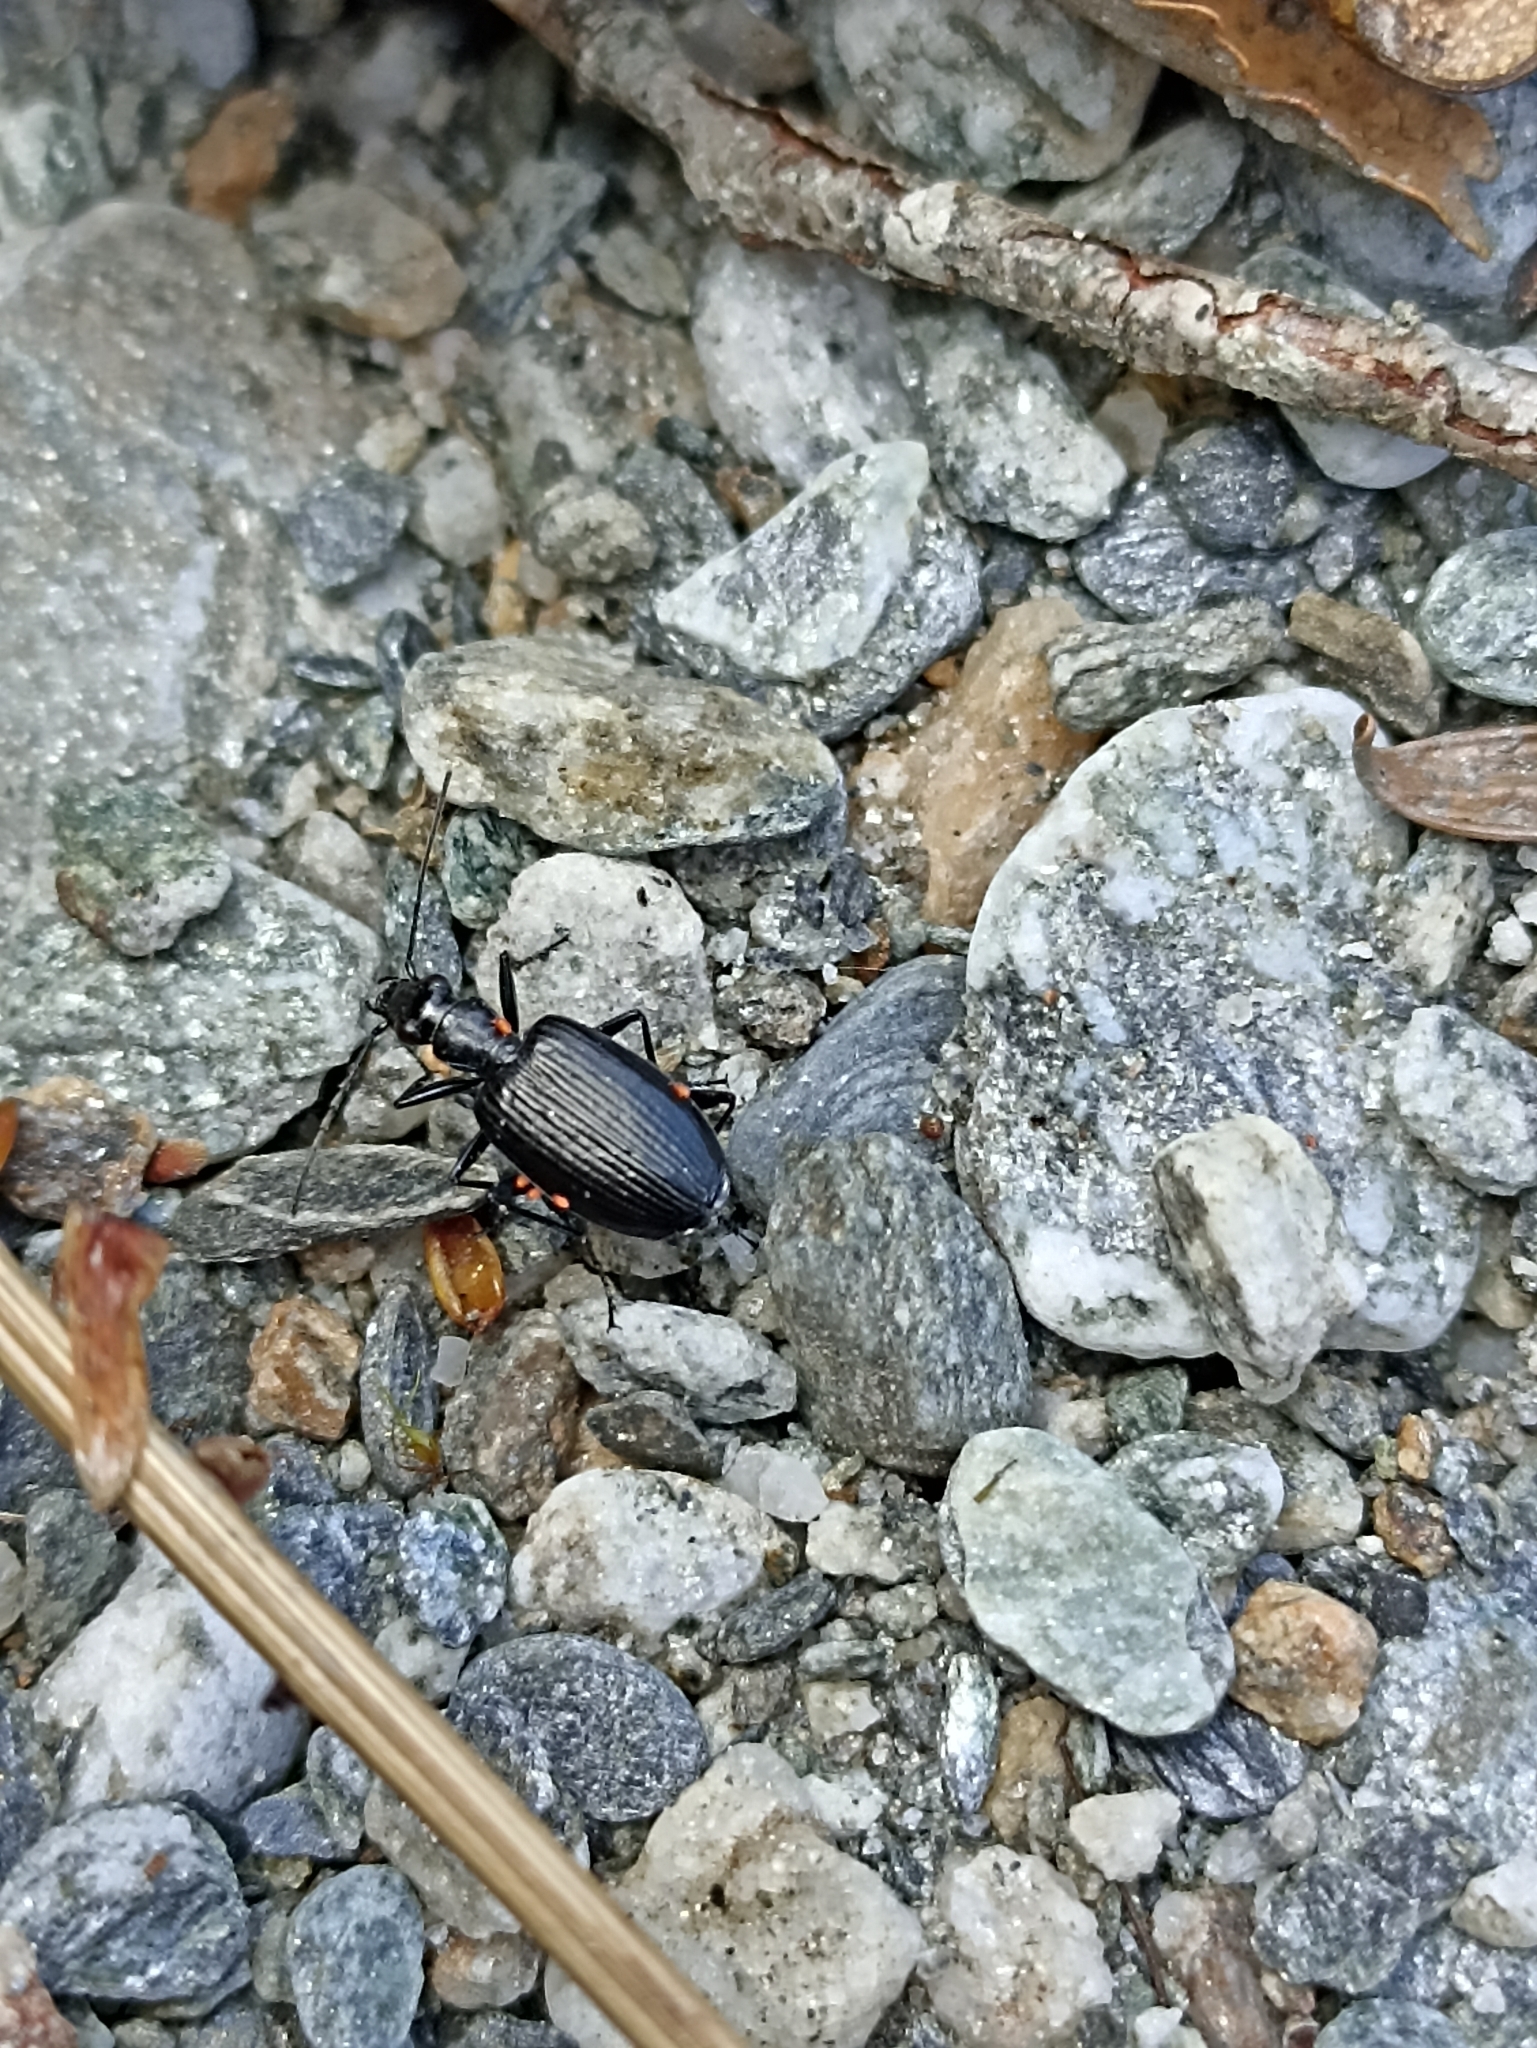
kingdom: Animalia
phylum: Arthropoda
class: Insecta
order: Coleoptera
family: Carabidae
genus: Actenonyx
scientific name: Actenonyx bembidioides
